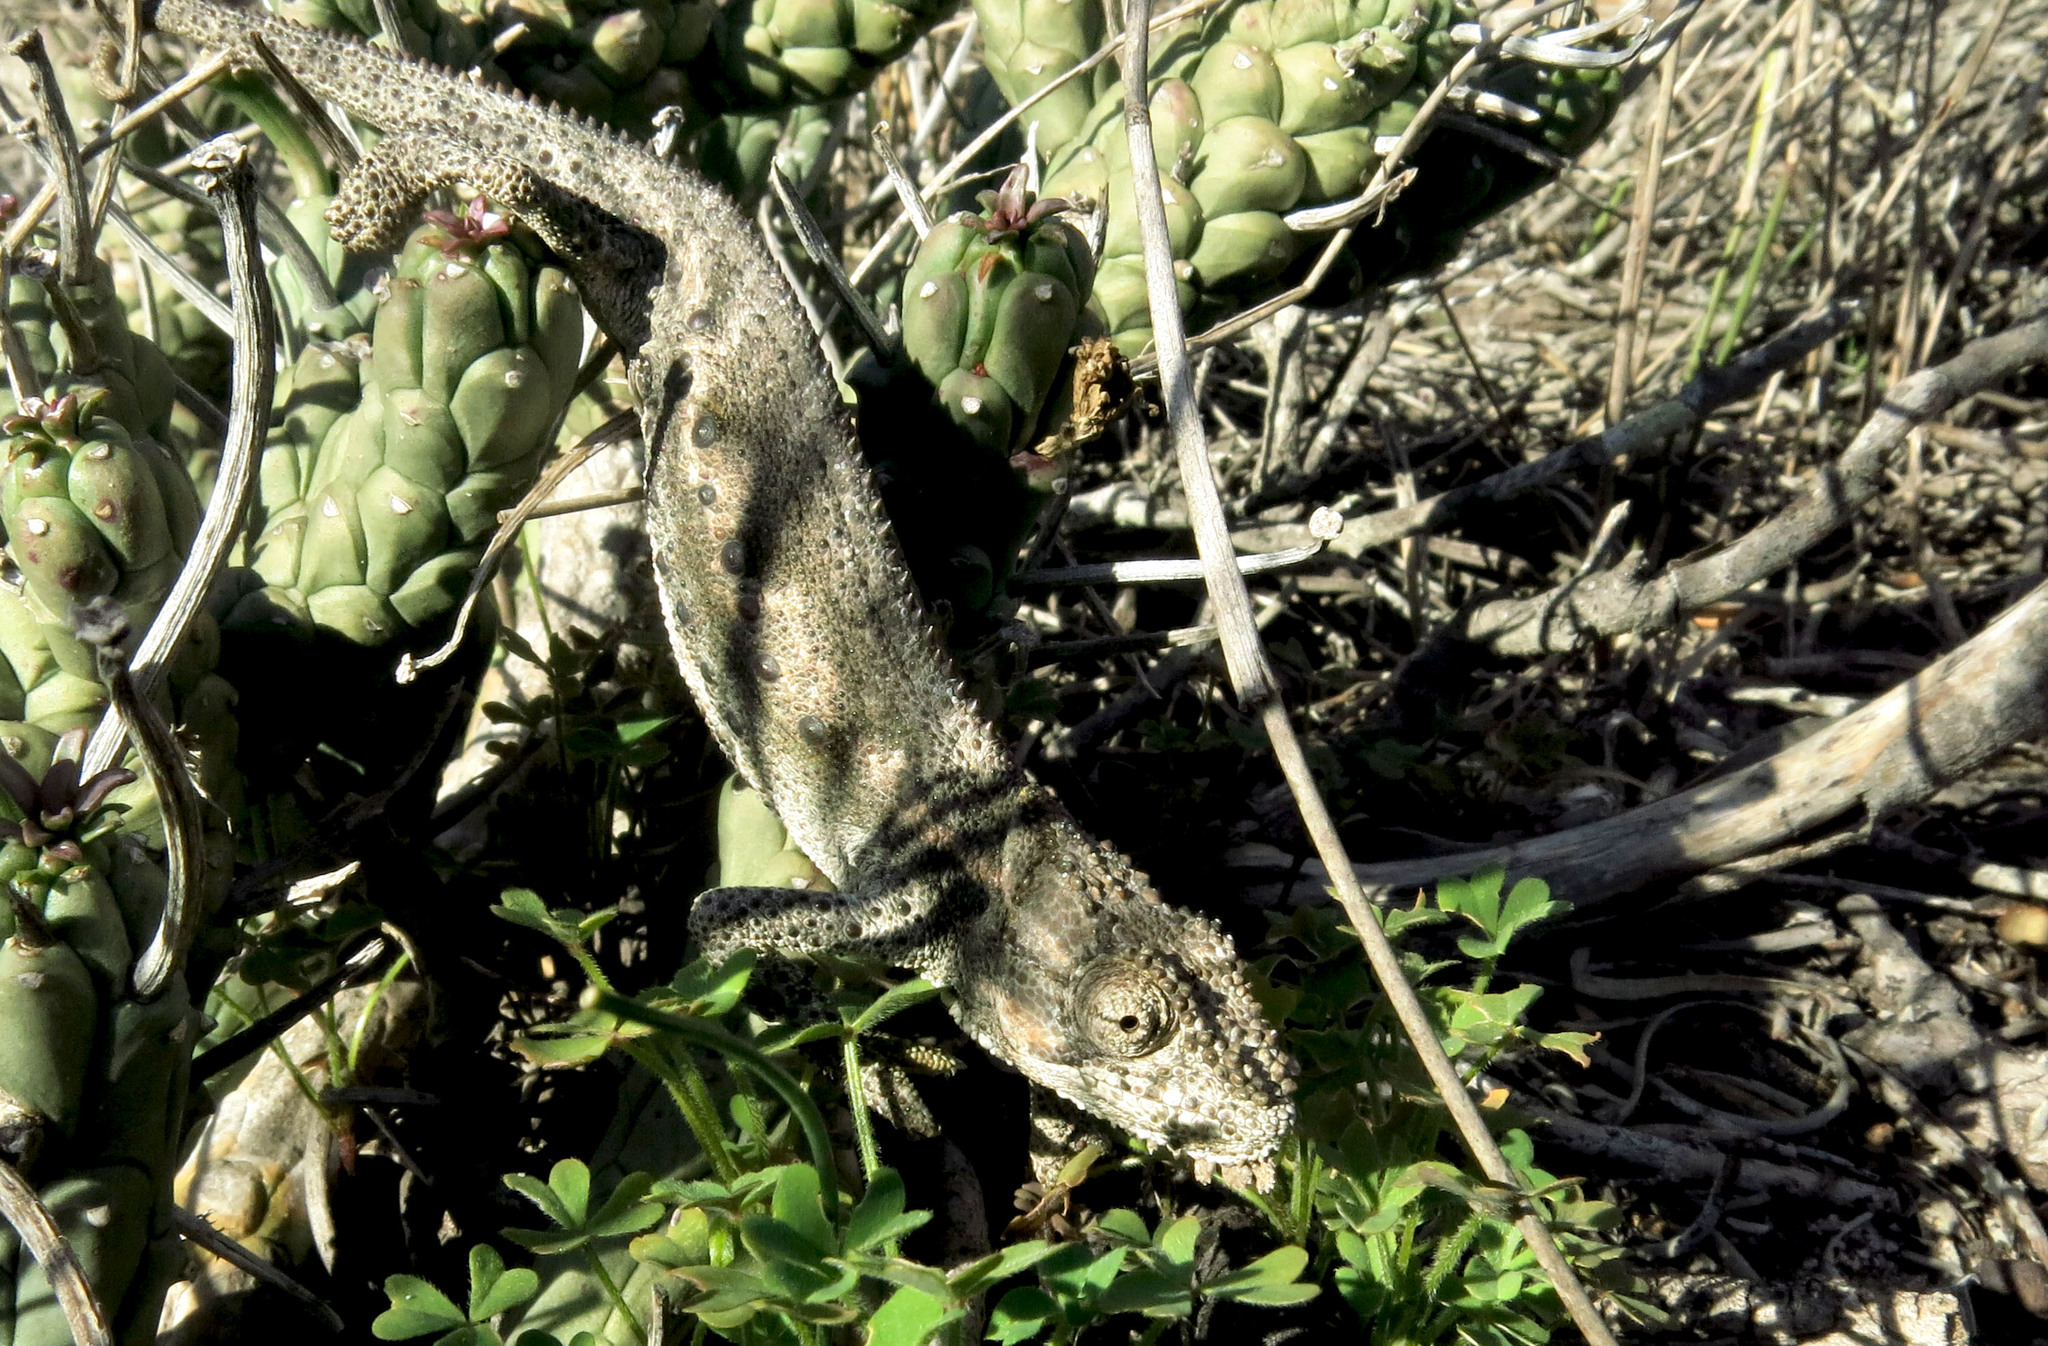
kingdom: Animalia
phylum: Chordata
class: Squamata
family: Chamaeleonidae
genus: Bradypodion
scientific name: Bradypodion occidentale
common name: Western dwarf chameleon
